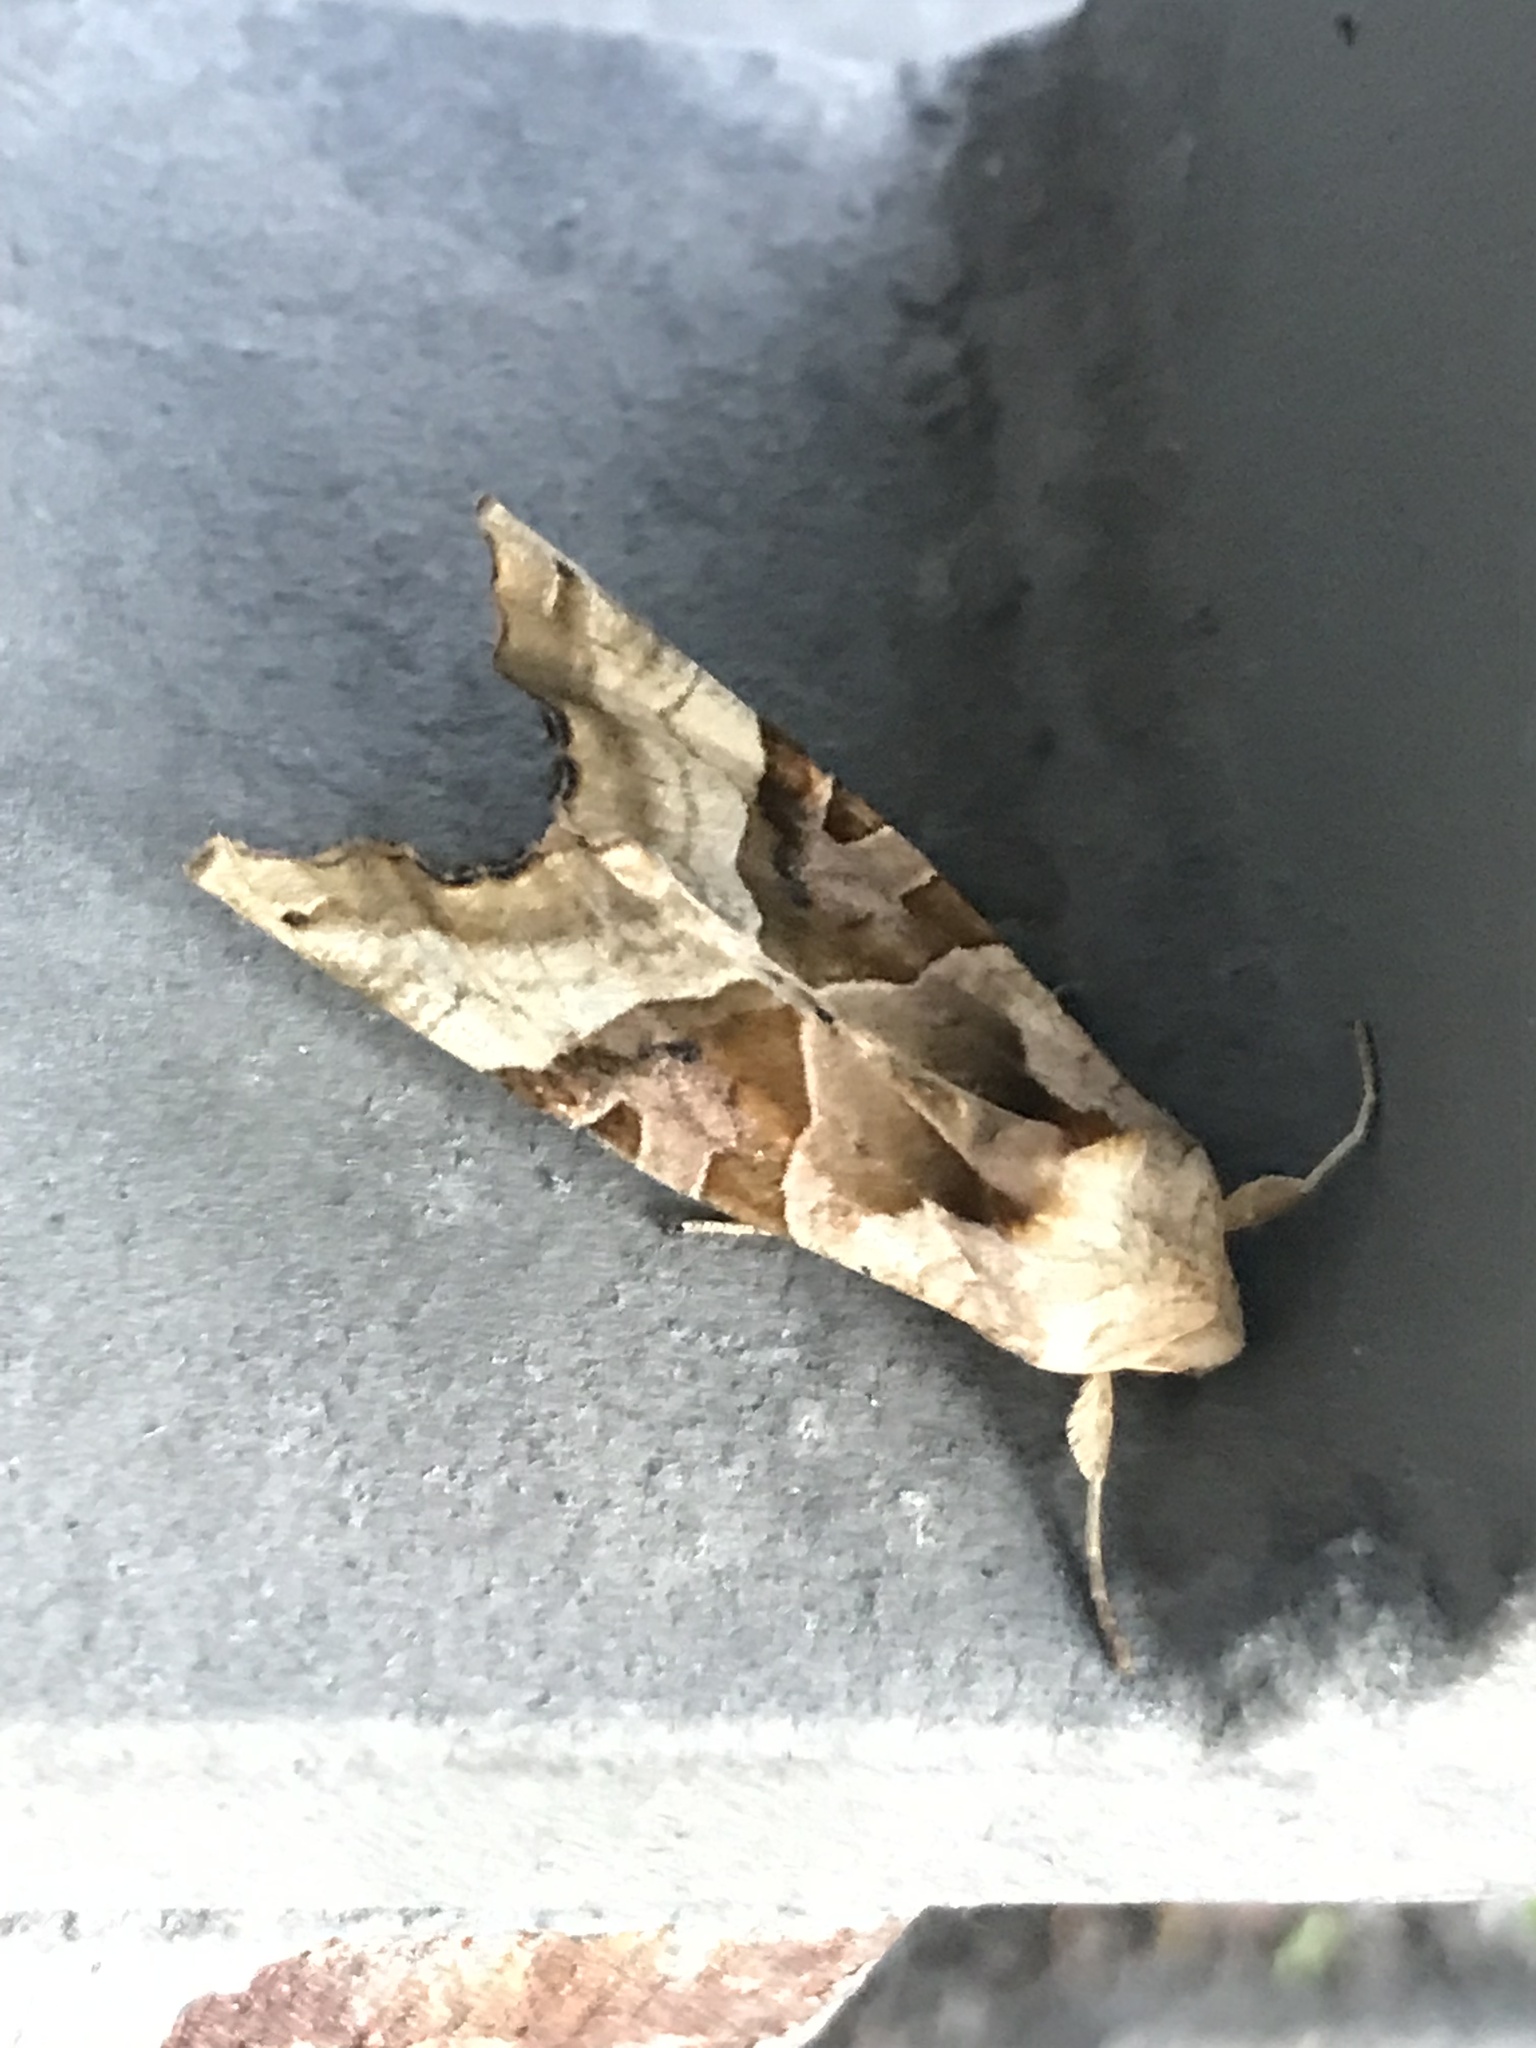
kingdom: Animalia
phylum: Arthropoda
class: Insecta
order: Lepidoptera
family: Noctuidae
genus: Phlogophora
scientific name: Phlogophora meticulosa
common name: Angle shades
